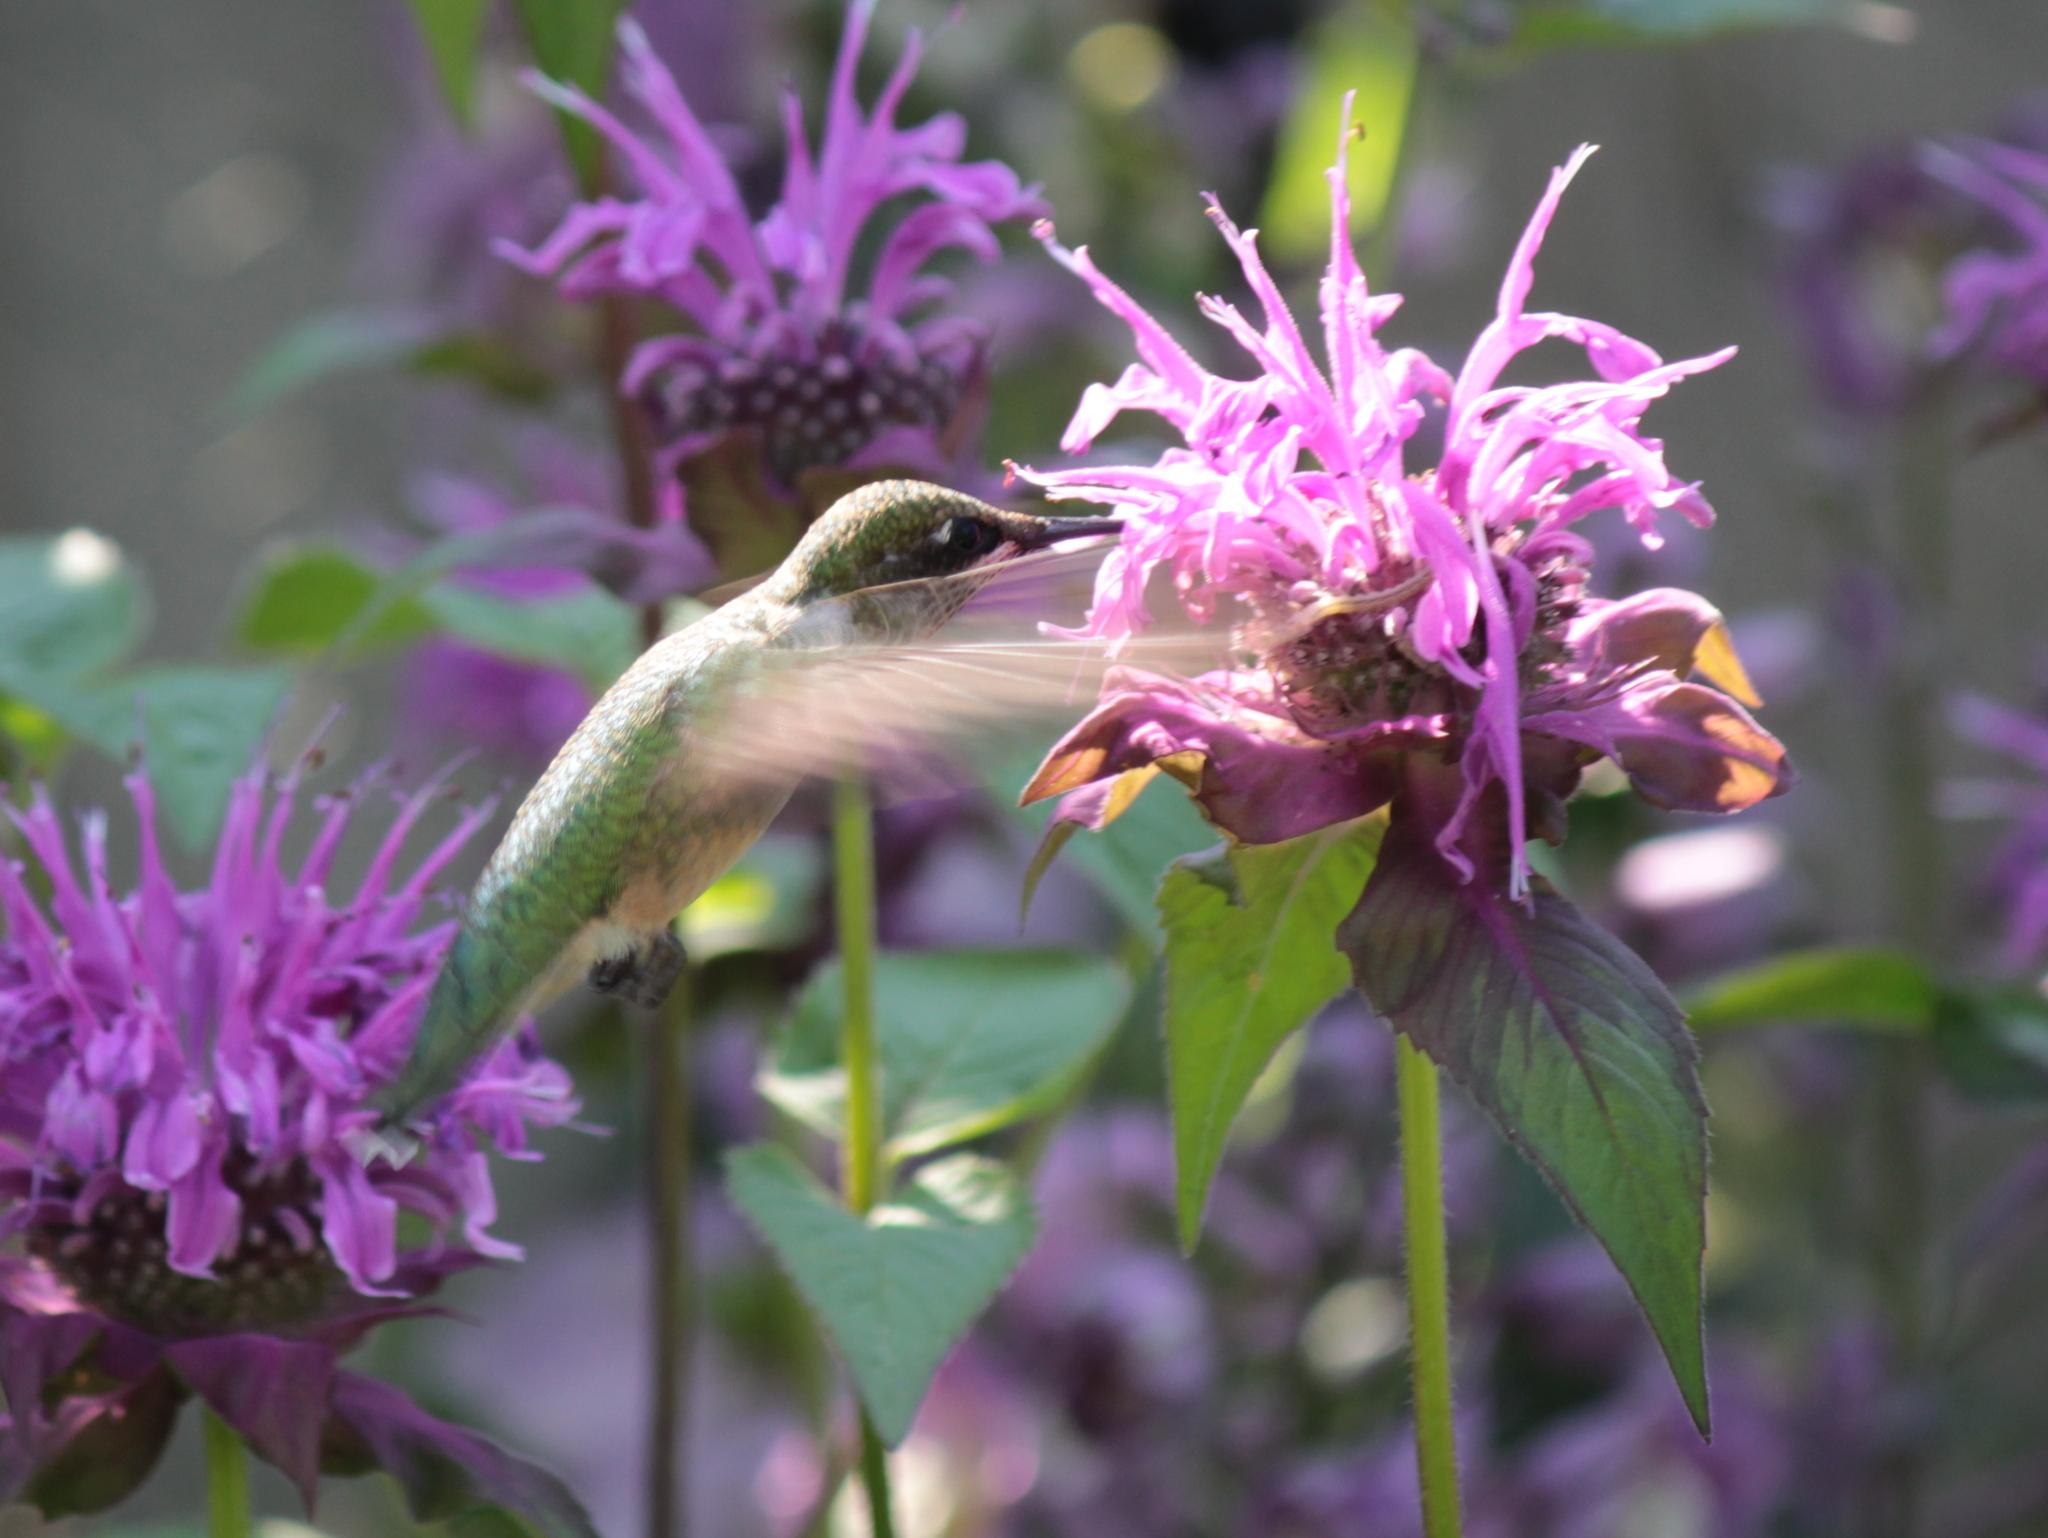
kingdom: Animalia
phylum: Chordata
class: Aves
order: Apodiformes
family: Trochilidae
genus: Archilochus
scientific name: Archilochus colubris
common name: Ruby-throated hummingbird
